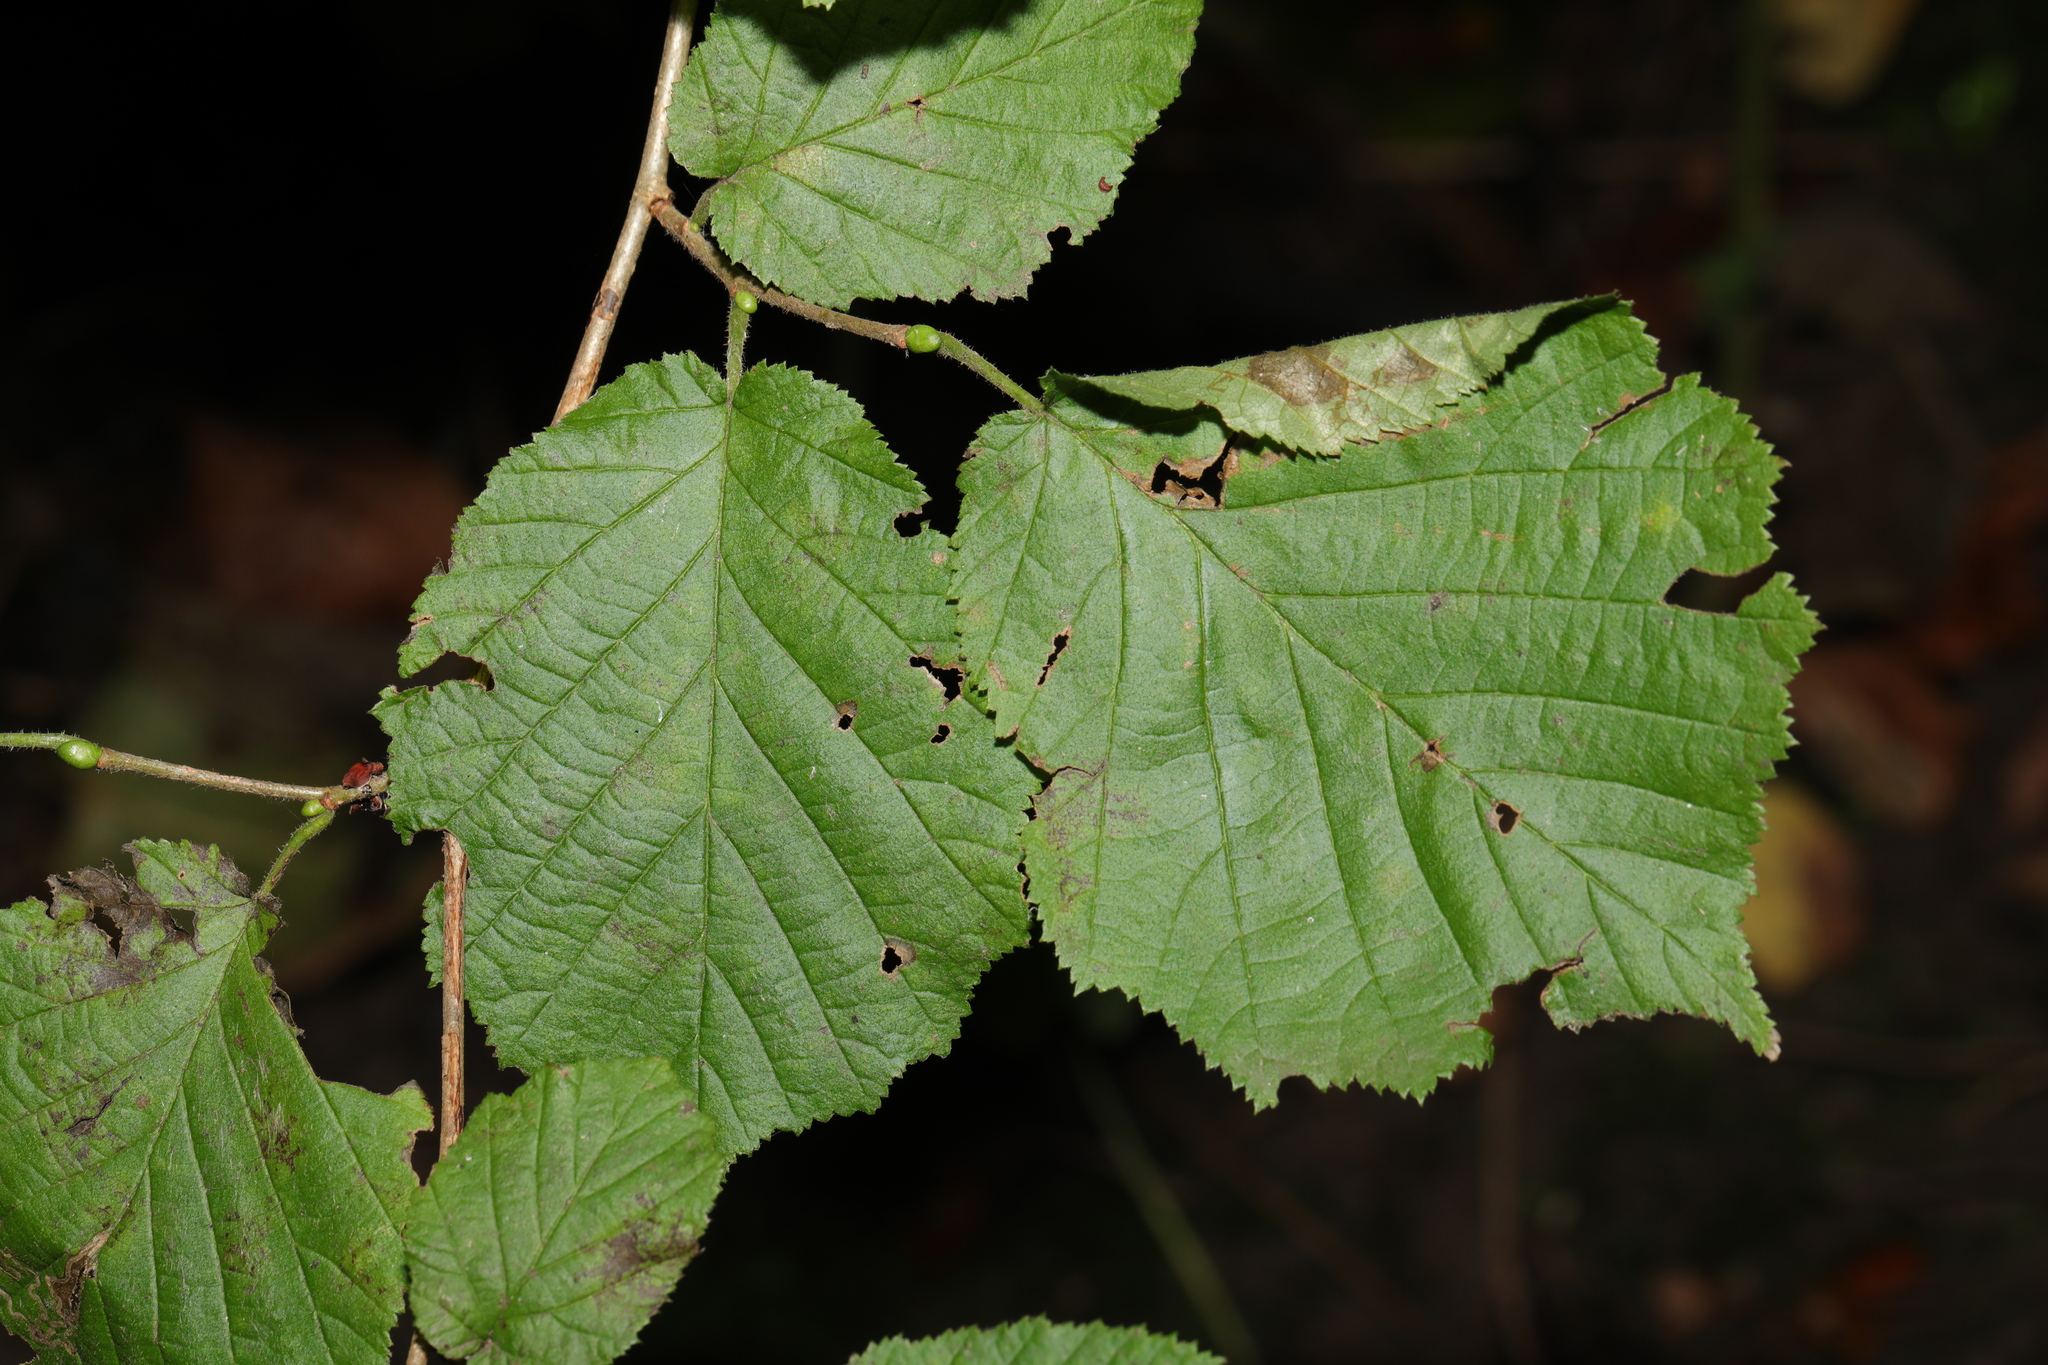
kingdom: Plantae
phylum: Tracheophyta
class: Magnoliopsida
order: Fagales
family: Betulaceae
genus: Corylus
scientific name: Corylus avellana
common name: European hazel
